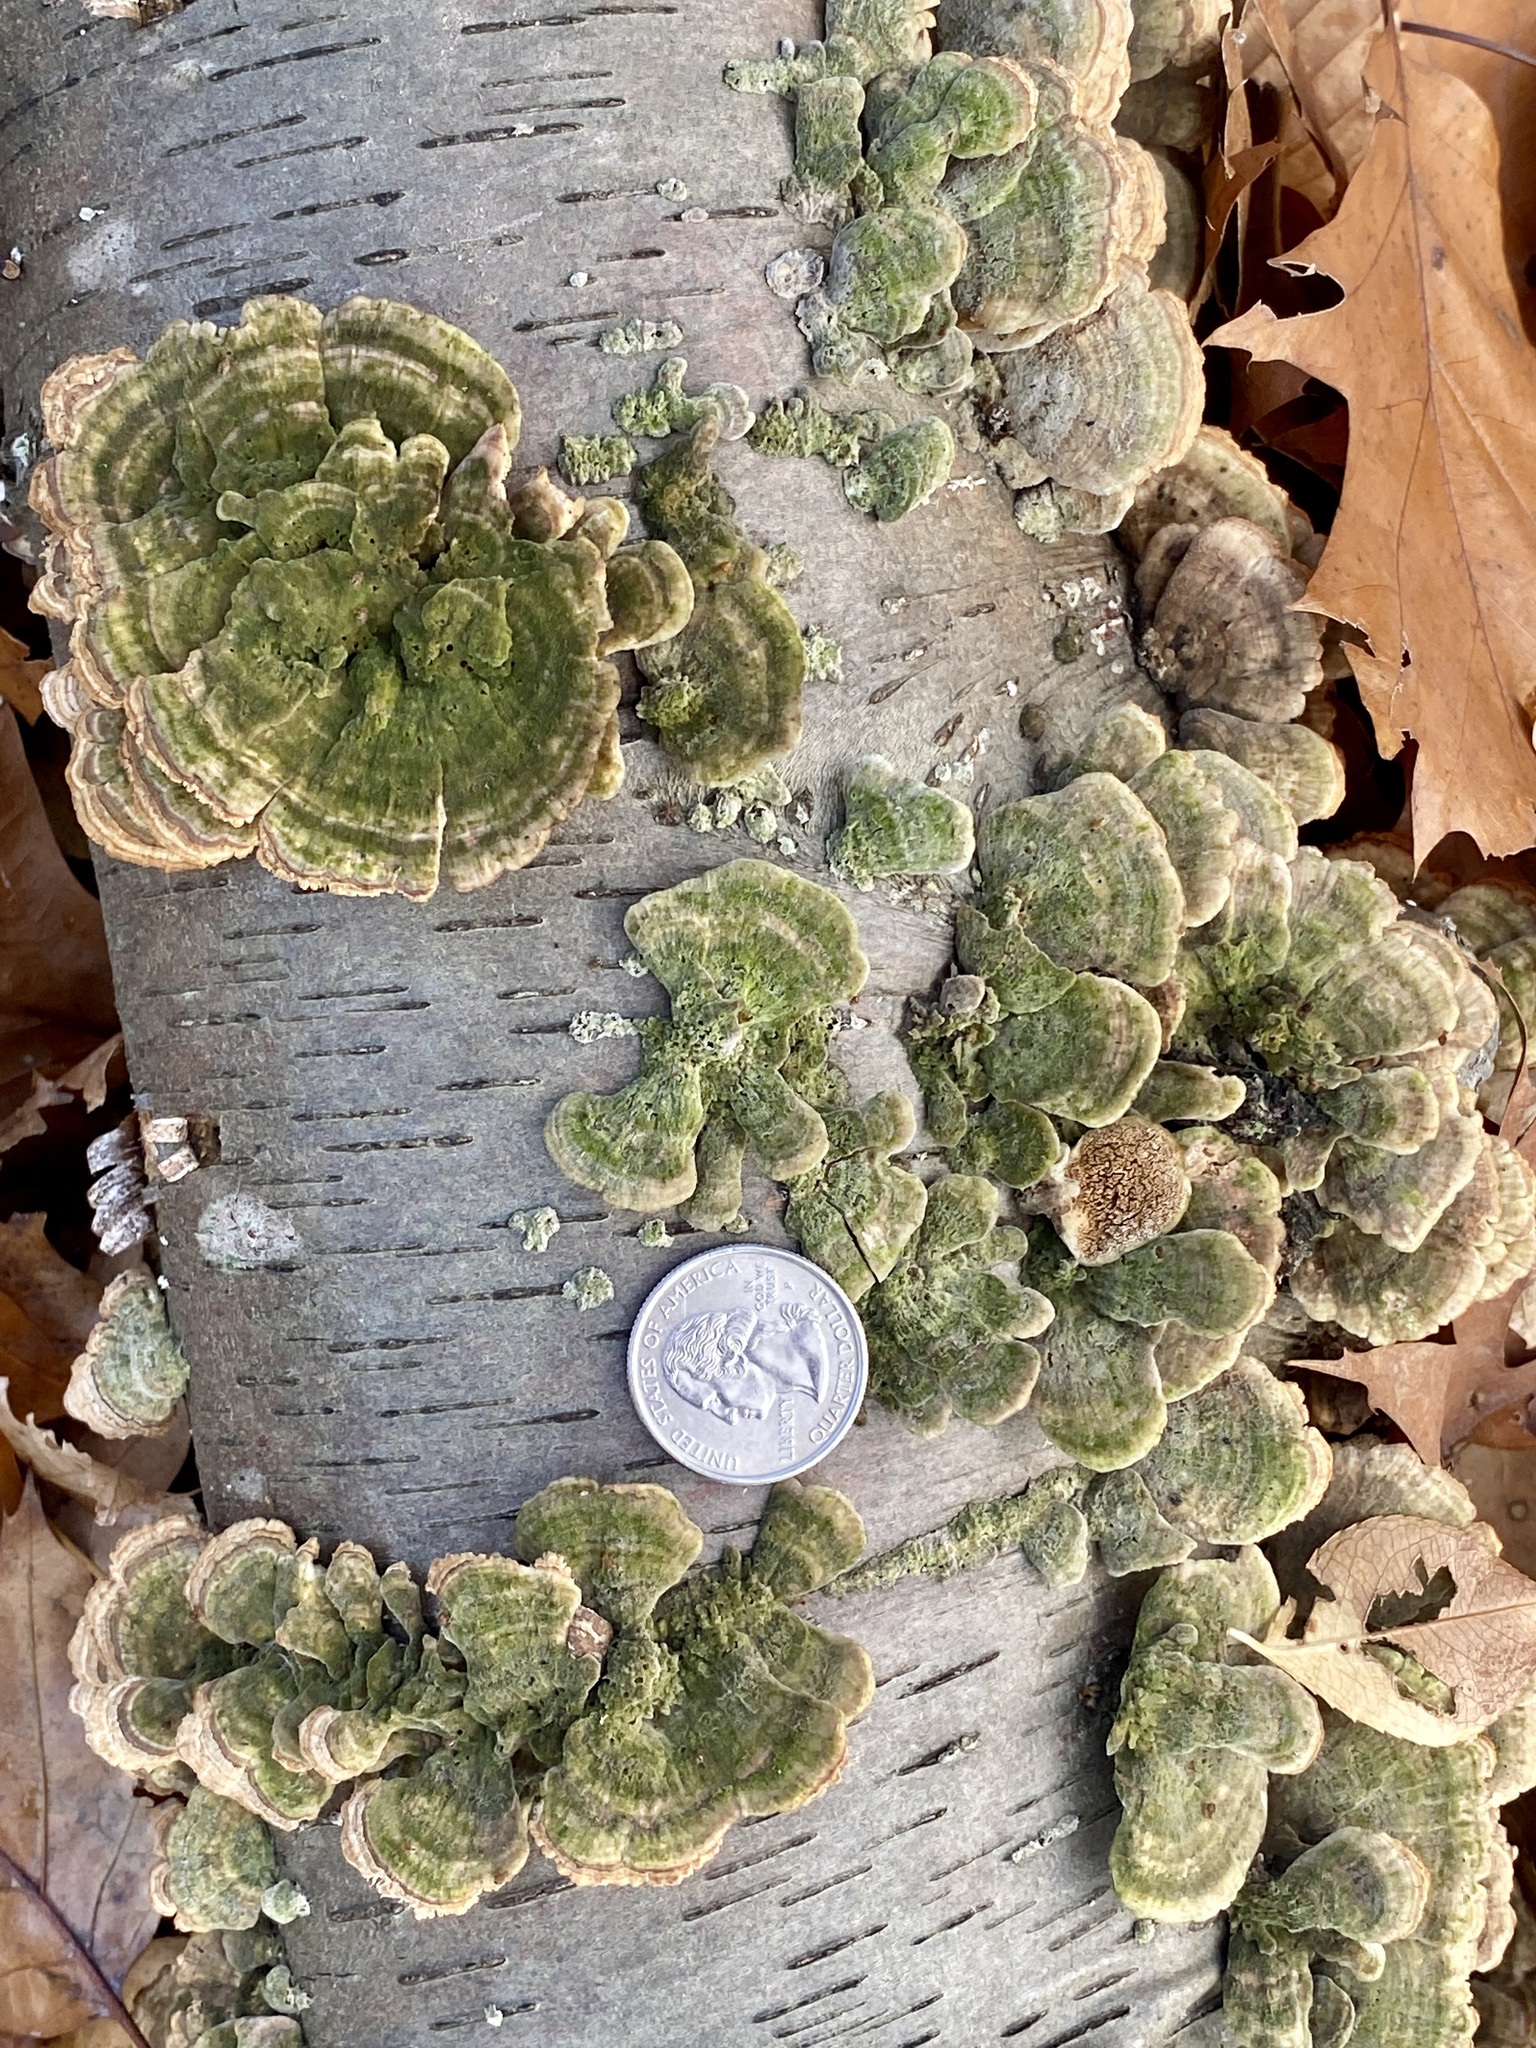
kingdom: Fungi
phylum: Basidiomycota
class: Agaricomycetes
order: Polyporales
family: Cerrenaceae
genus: Cerrena
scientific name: Cerrena unicolor
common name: Mossy maze polypore
